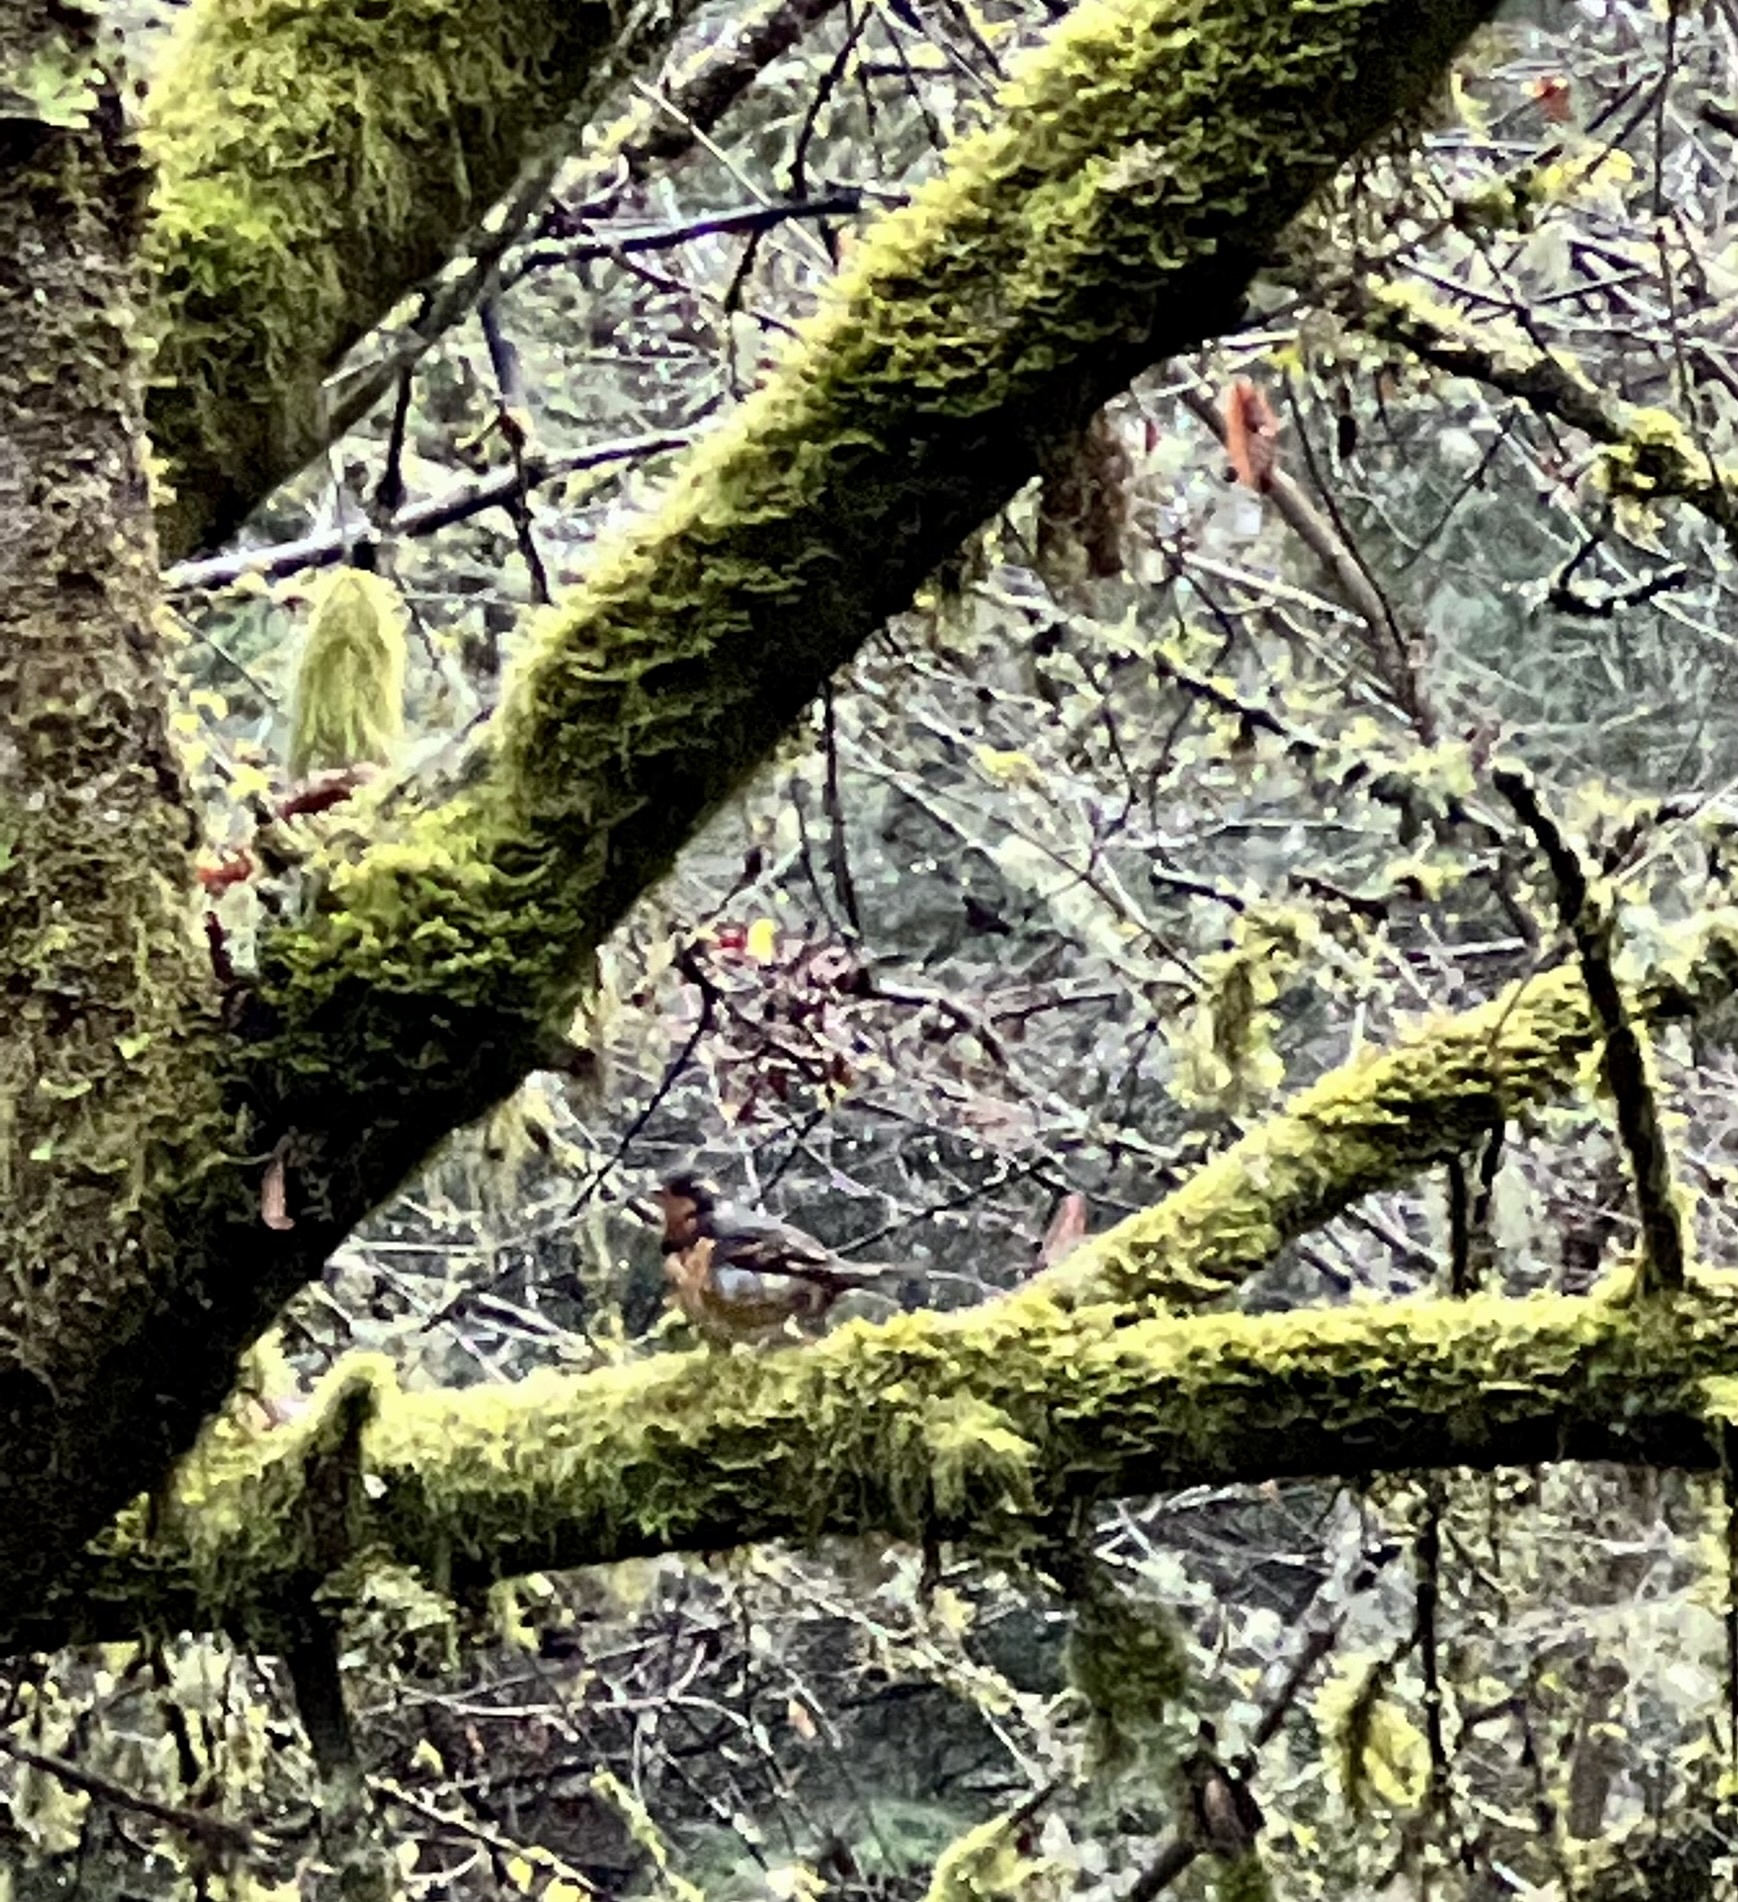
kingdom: Animalia
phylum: Chordata
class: Aves
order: Passeriformes
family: Turdidae
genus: Ixoreus
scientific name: Ixoreus naevius
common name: Varied thrush
